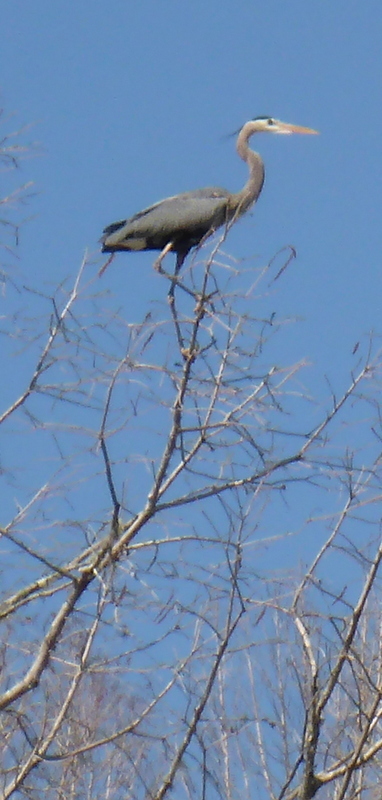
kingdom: Animalia
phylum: Chordata
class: Aves
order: Pelecaniformes
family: Ardeidae
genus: Ardea
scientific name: Ardea herodias
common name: Great blue heron
